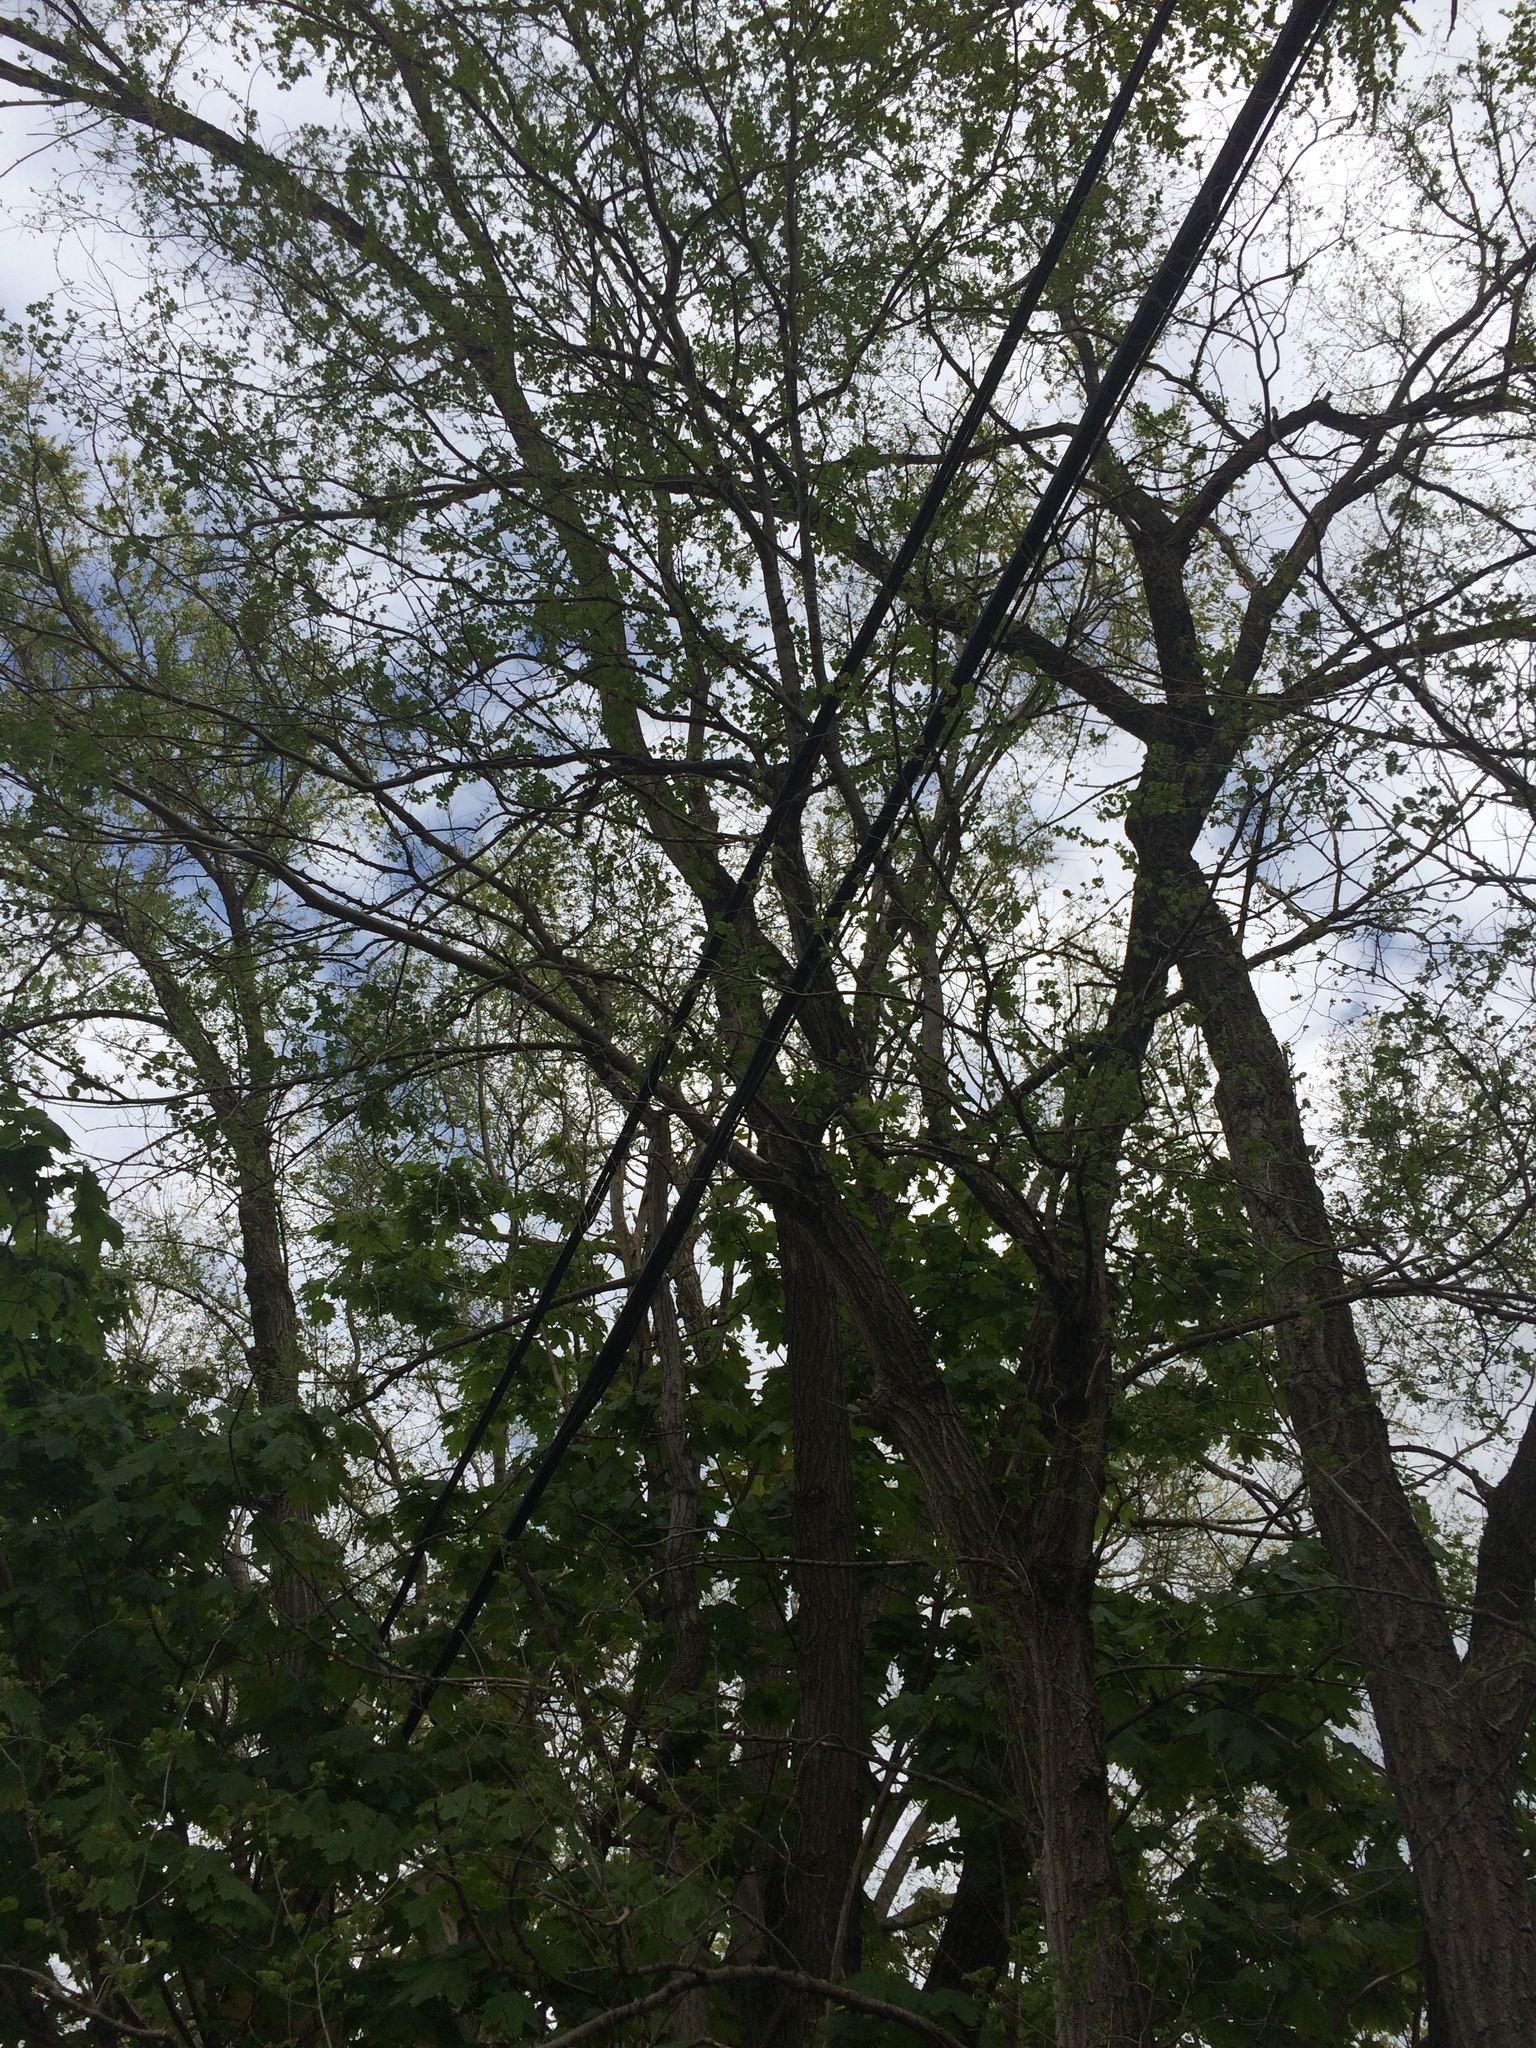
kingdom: Plantae
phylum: Tracheophyta
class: Magnoliopsida
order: Rosales
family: Ulmaceae
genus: Ulmus
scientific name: Ulmus pumila
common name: Siberian elm
